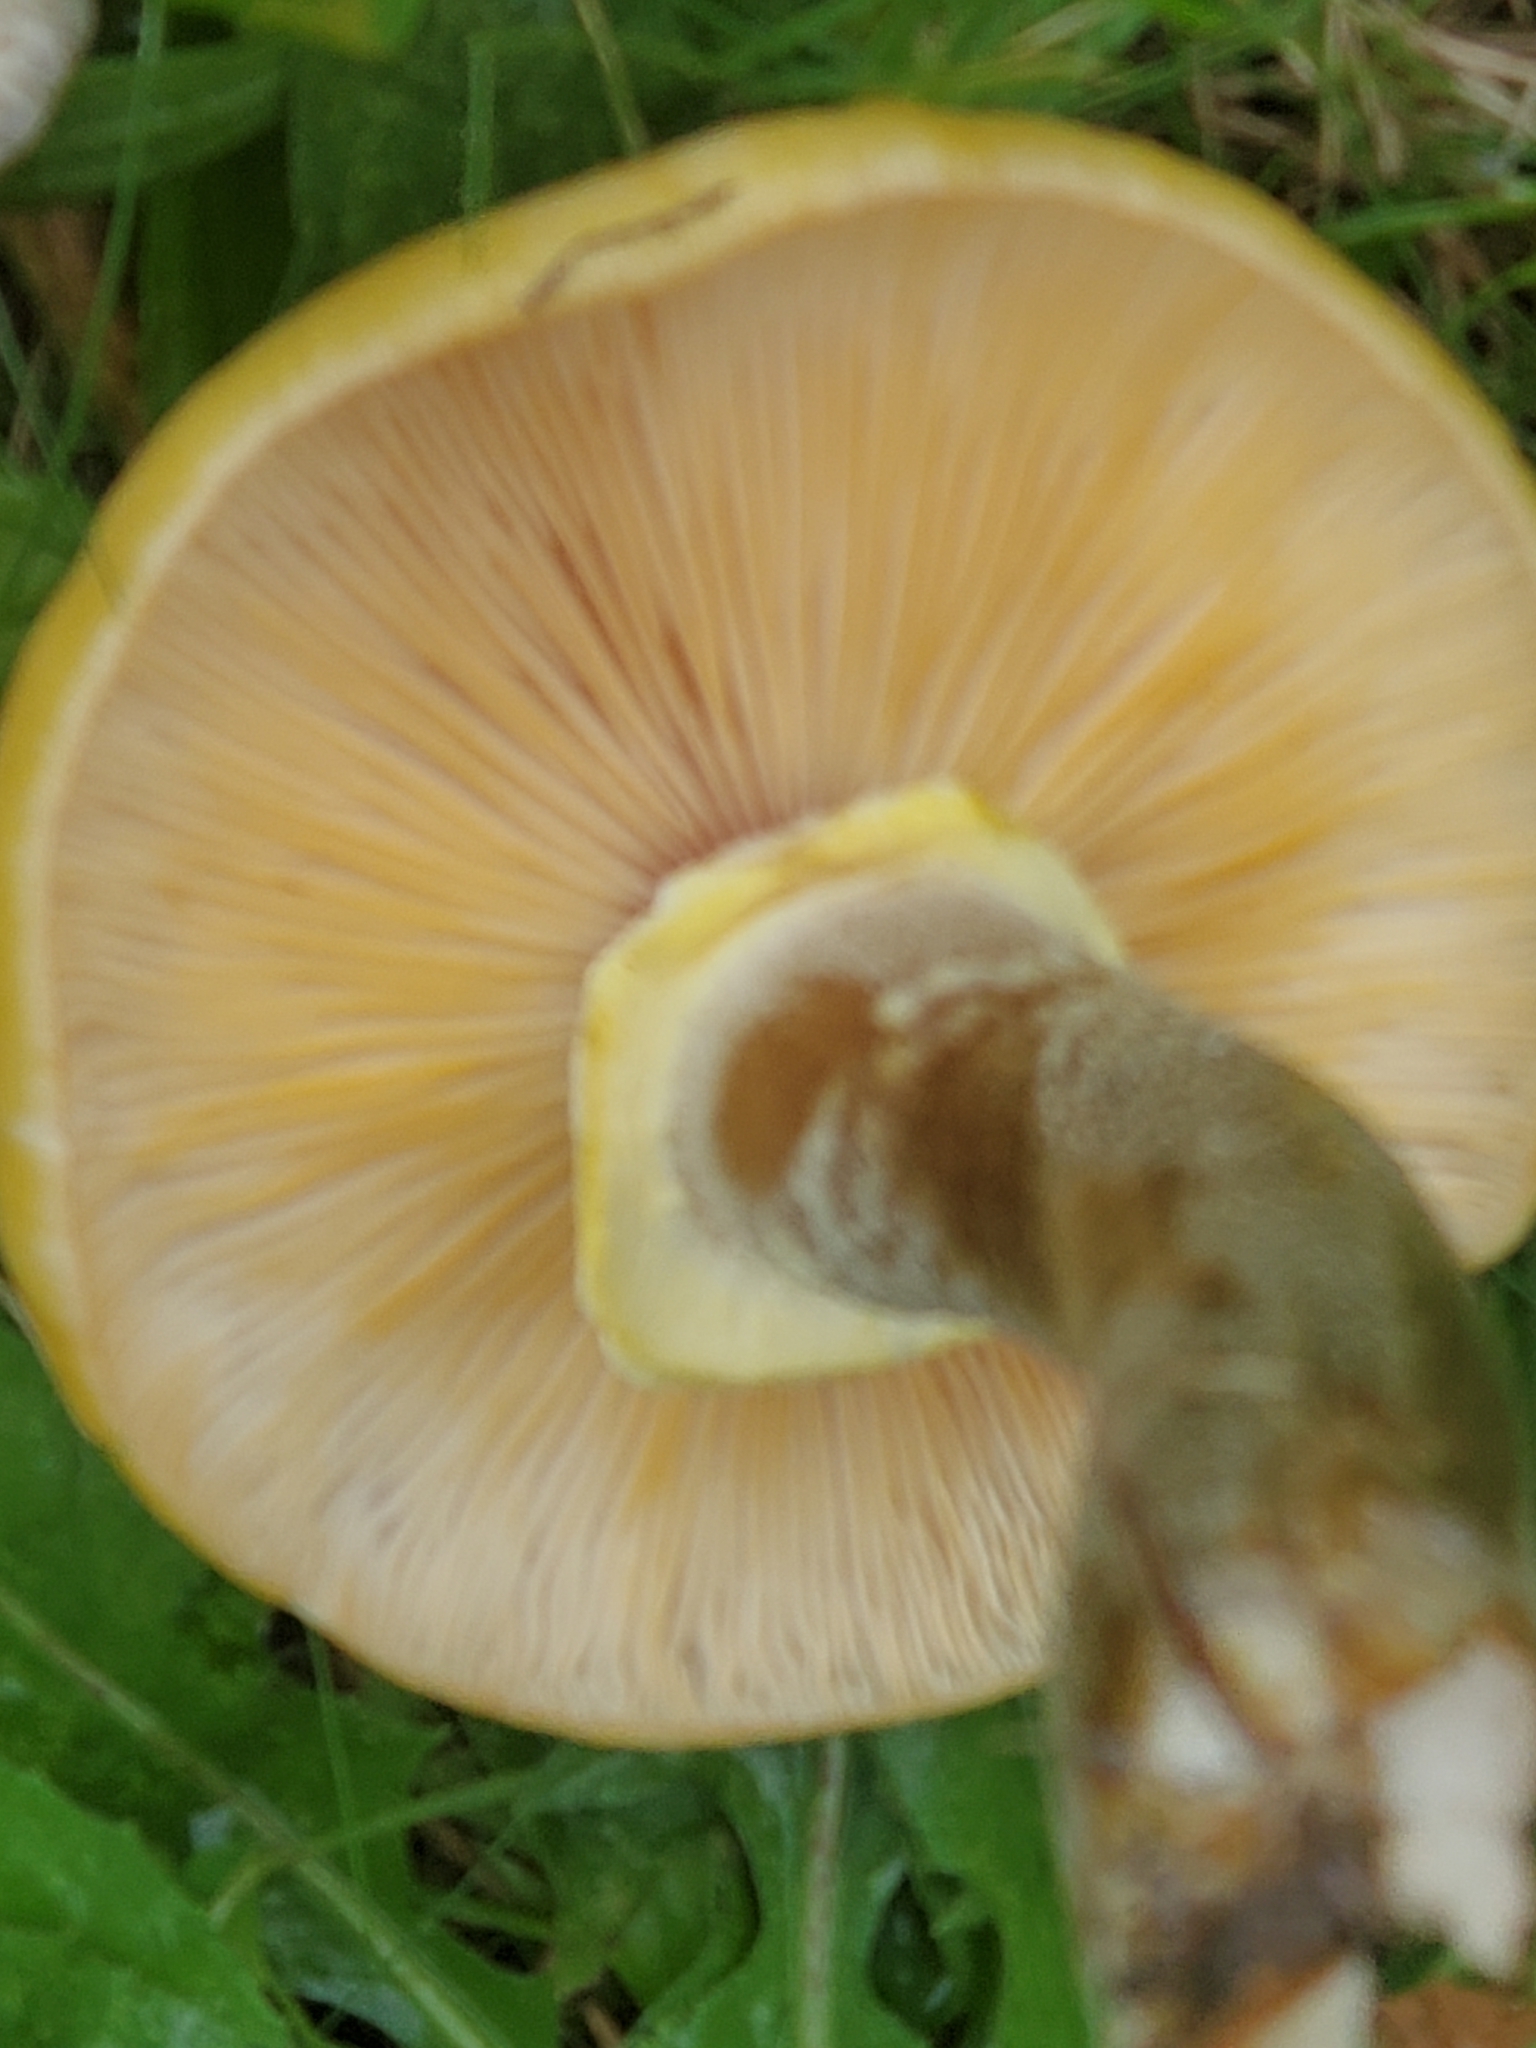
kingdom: Fungi
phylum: Basidiomycota
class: Agaricomycetes
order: Agaricales
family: Physalacriaceae
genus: Armillaria
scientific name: Armillaria mellea
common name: Honey fungus
